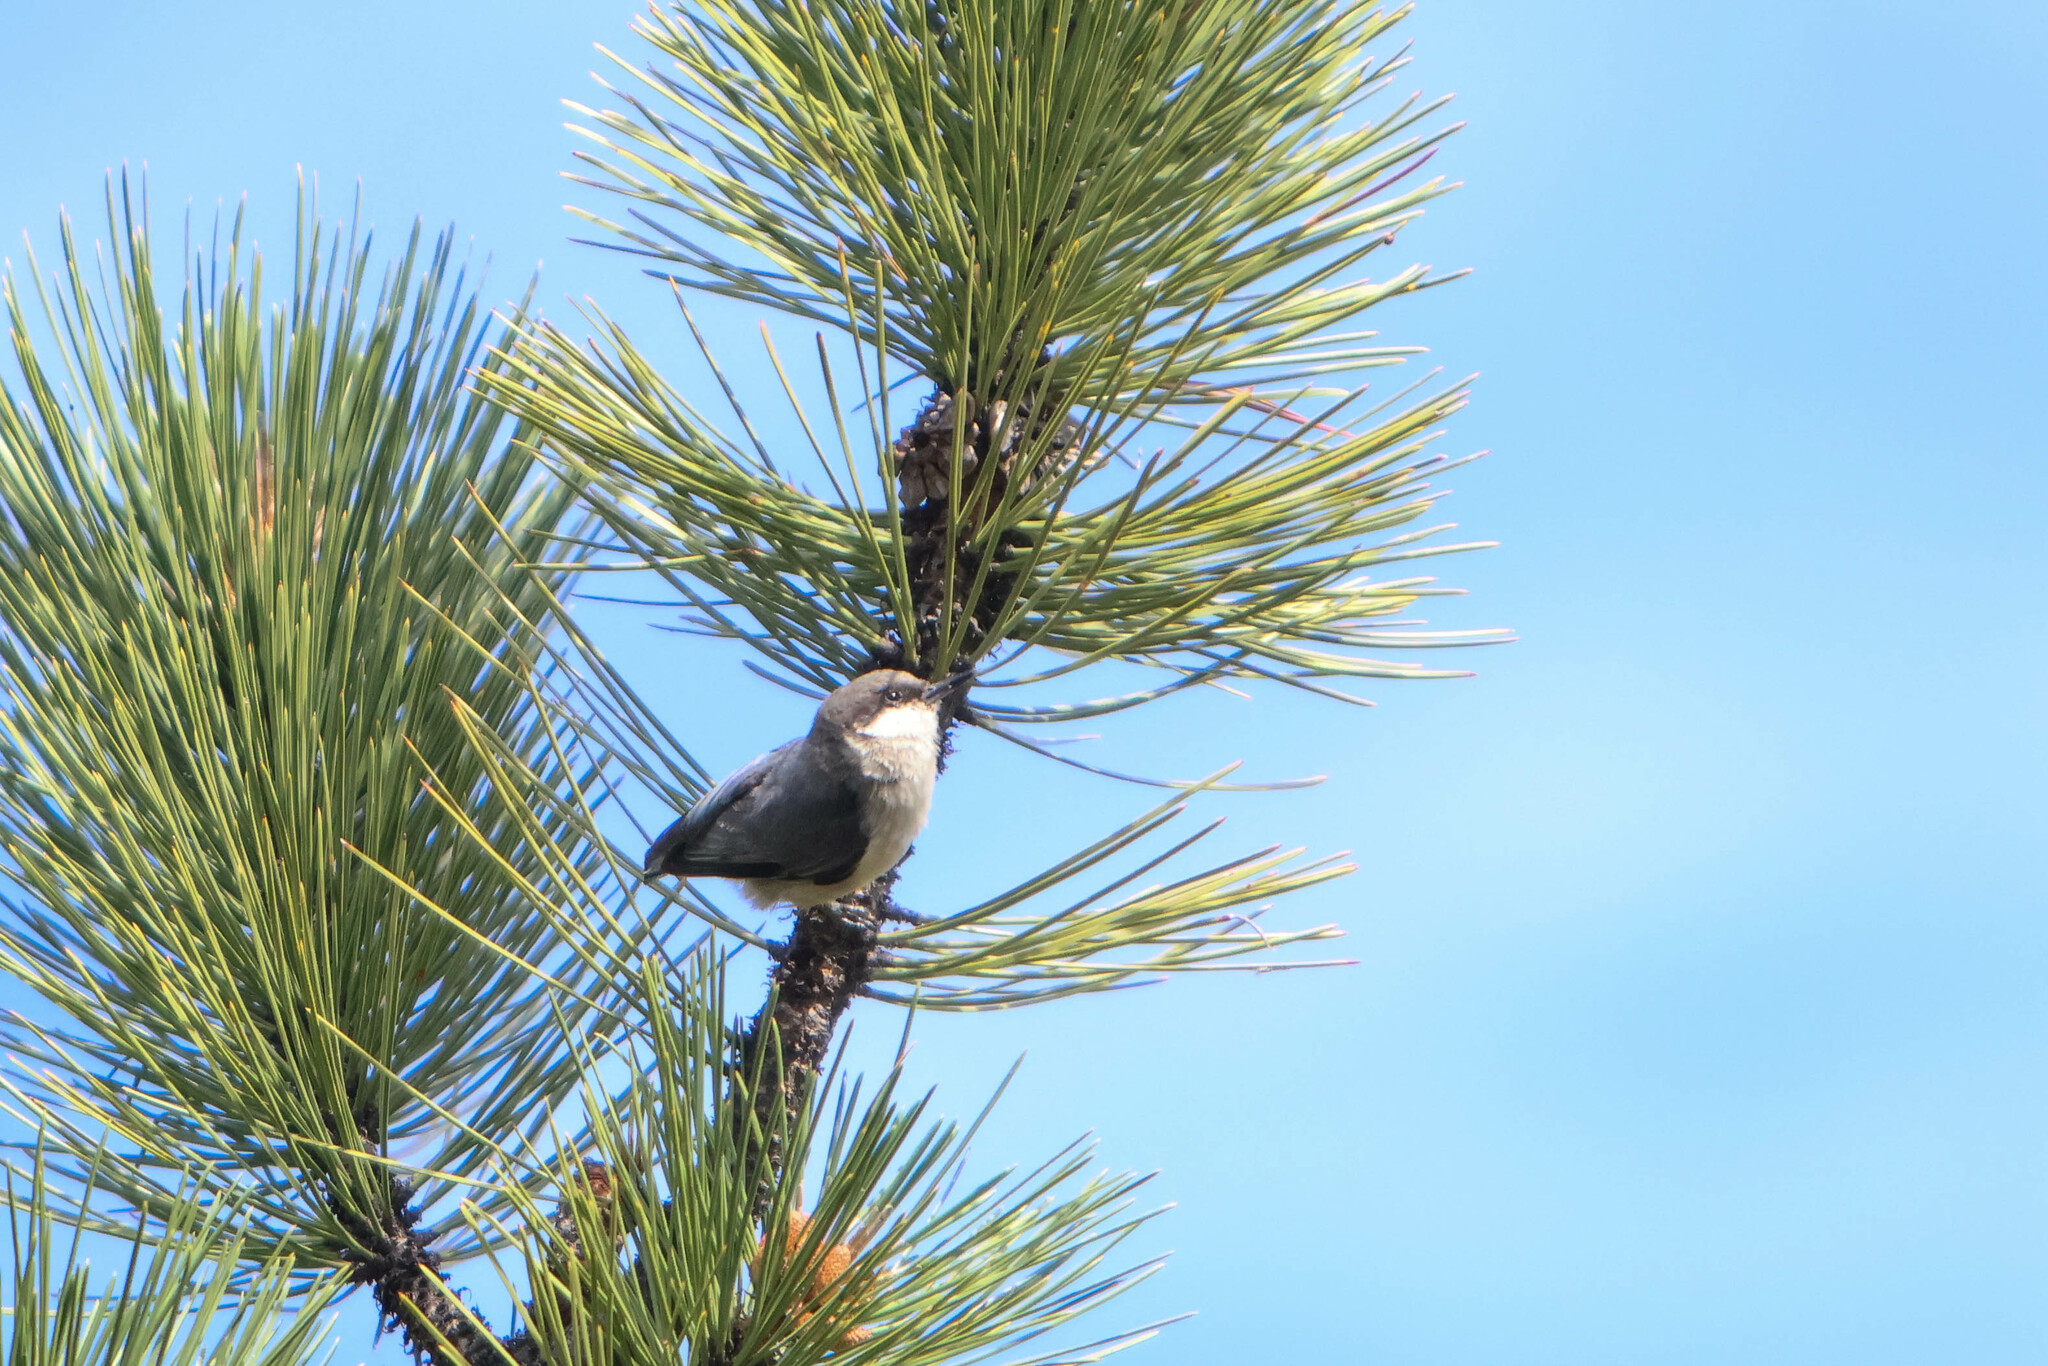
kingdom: Animalia
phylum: Chordata
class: Aves
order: Passeriformes
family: Sittidae
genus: Sitta
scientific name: Sitta pygmaea
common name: Pygmy nuthatch
